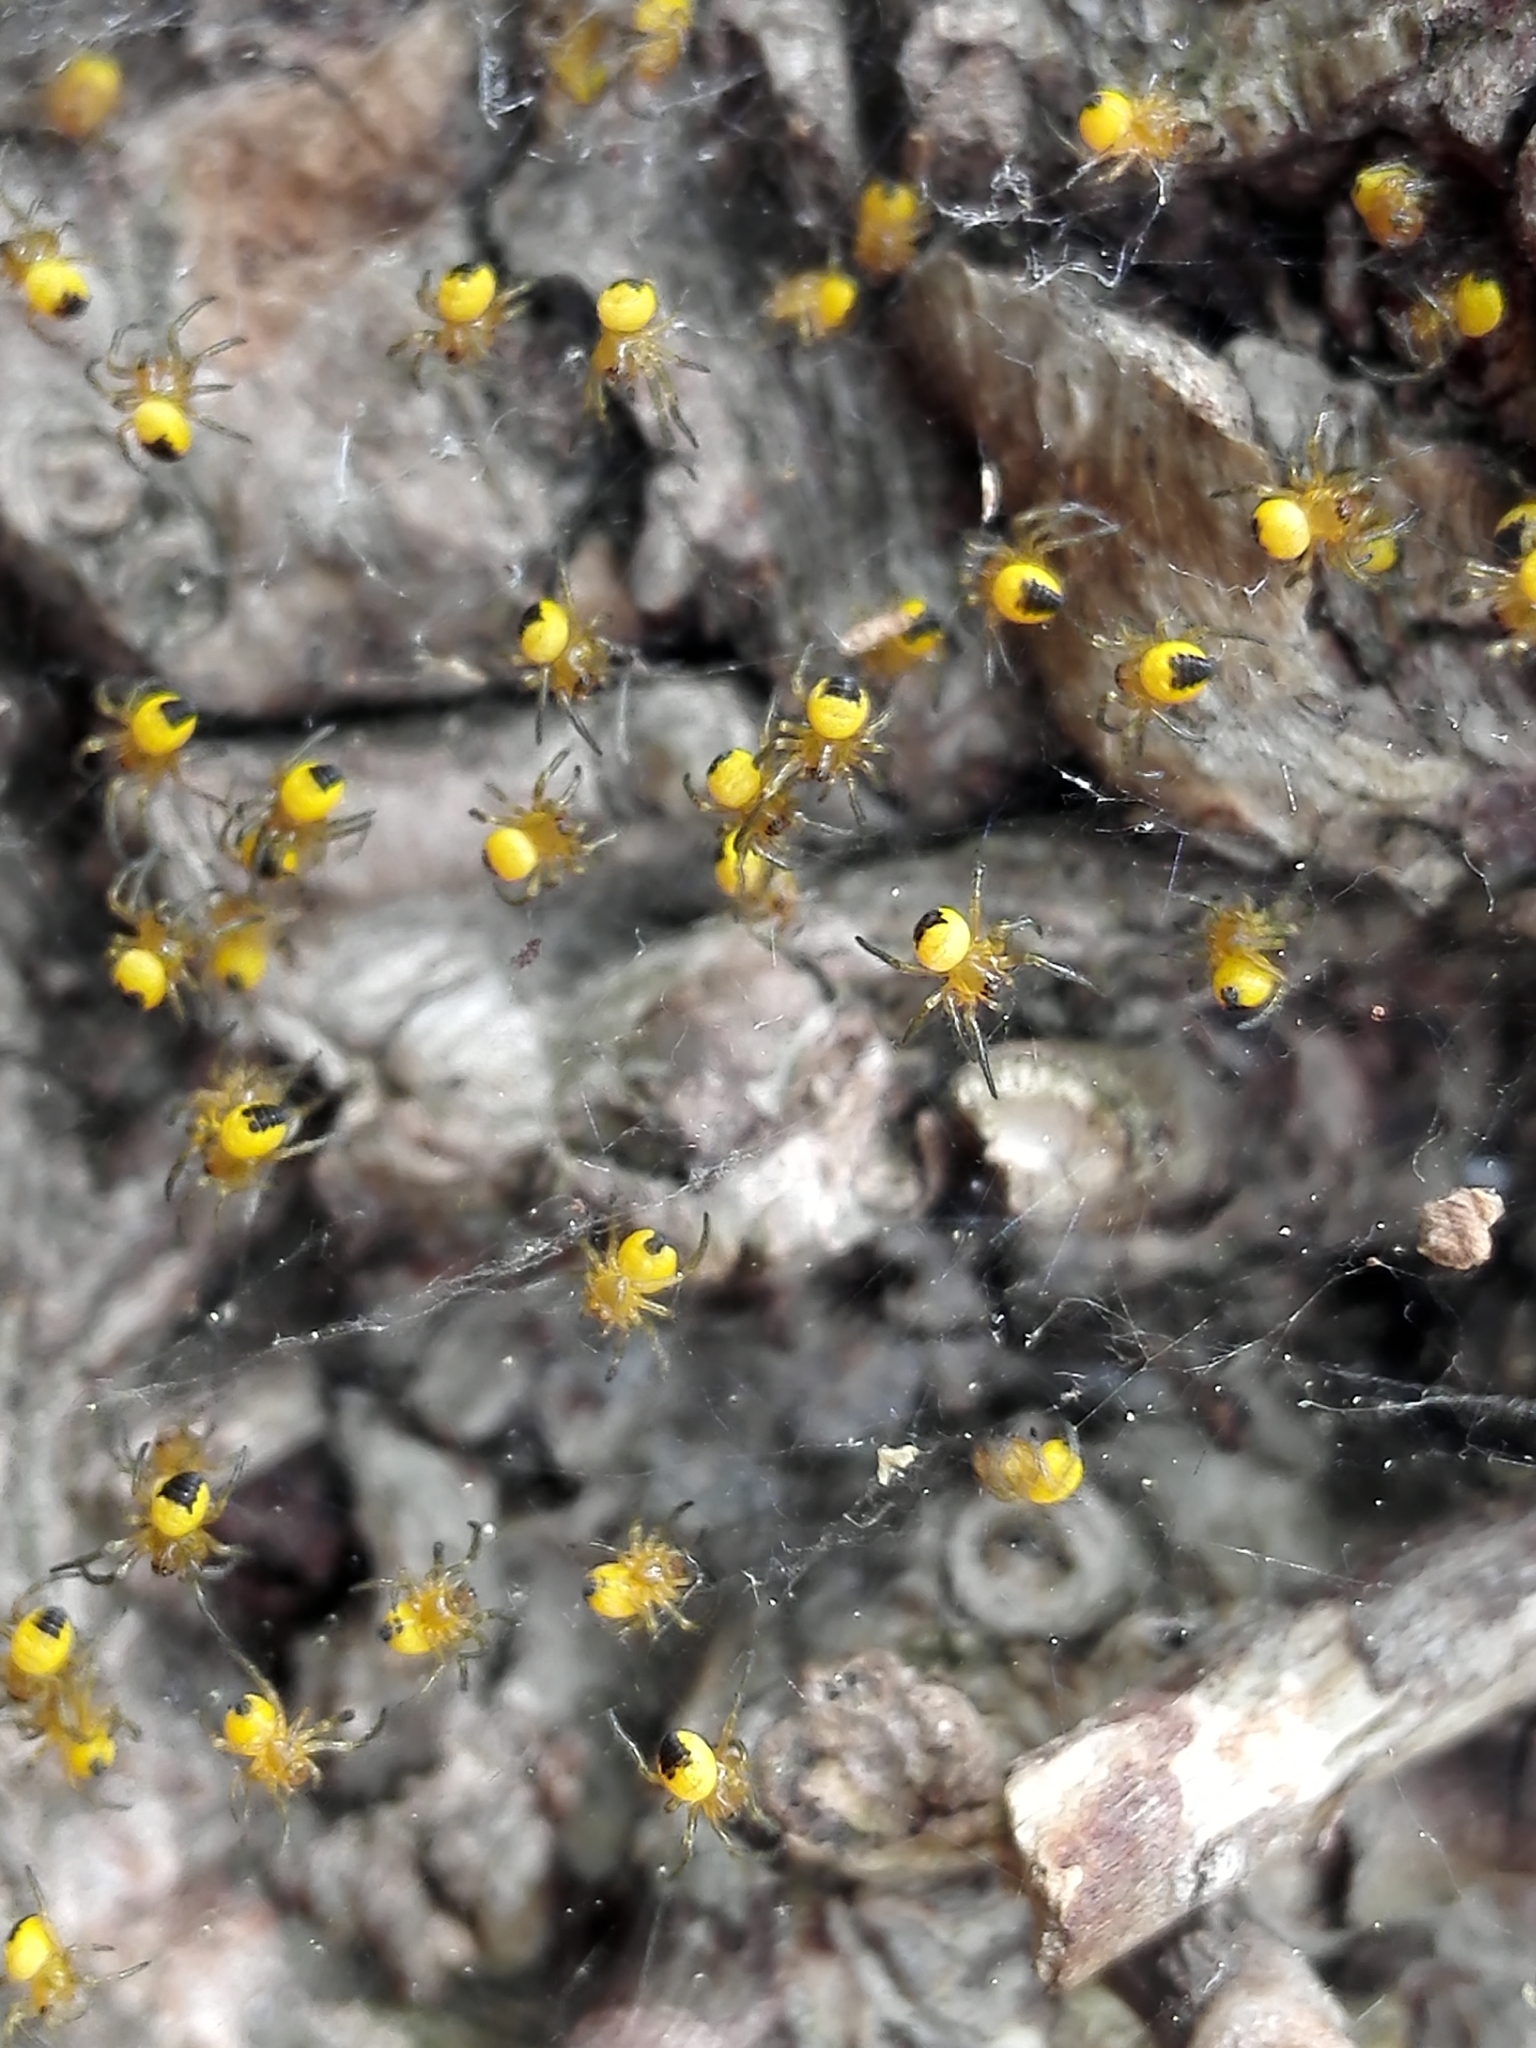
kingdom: Animalia
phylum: Arthropoda
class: Arachnida
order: Araneae
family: Araneidae
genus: Araneus
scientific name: Araneus diadematus
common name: Cross orbweaver
